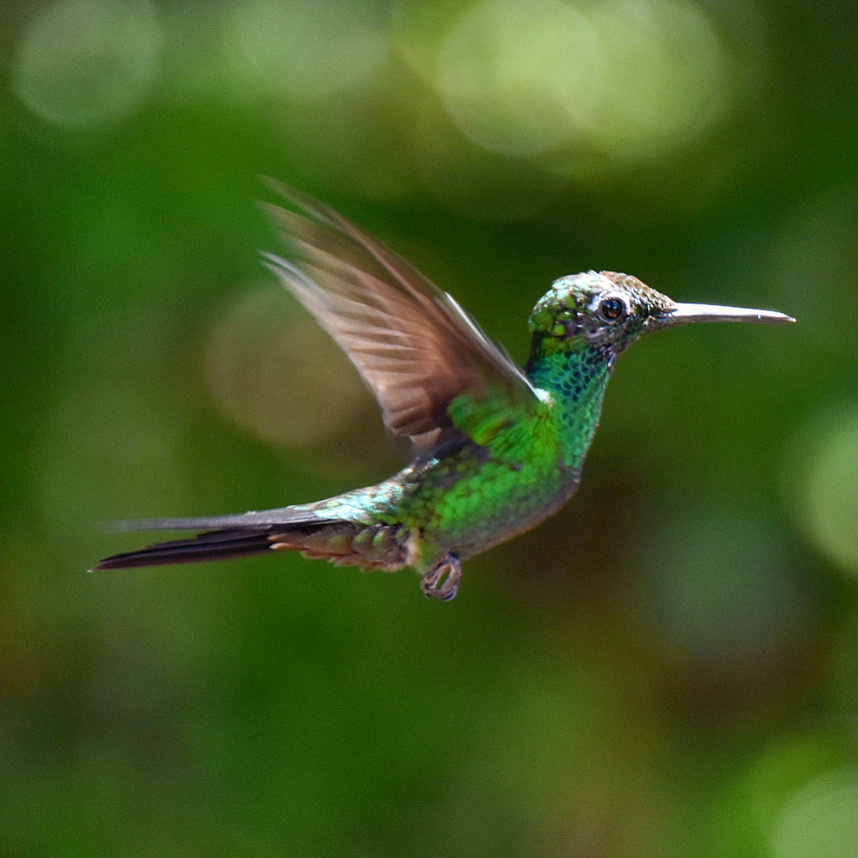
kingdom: Animalia
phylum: Chordata
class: Aves
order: Apodiformes
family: Trochilidae
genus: Heliodoxa
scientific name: Heliodoxa jacula
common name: Green-crowned brilliant
